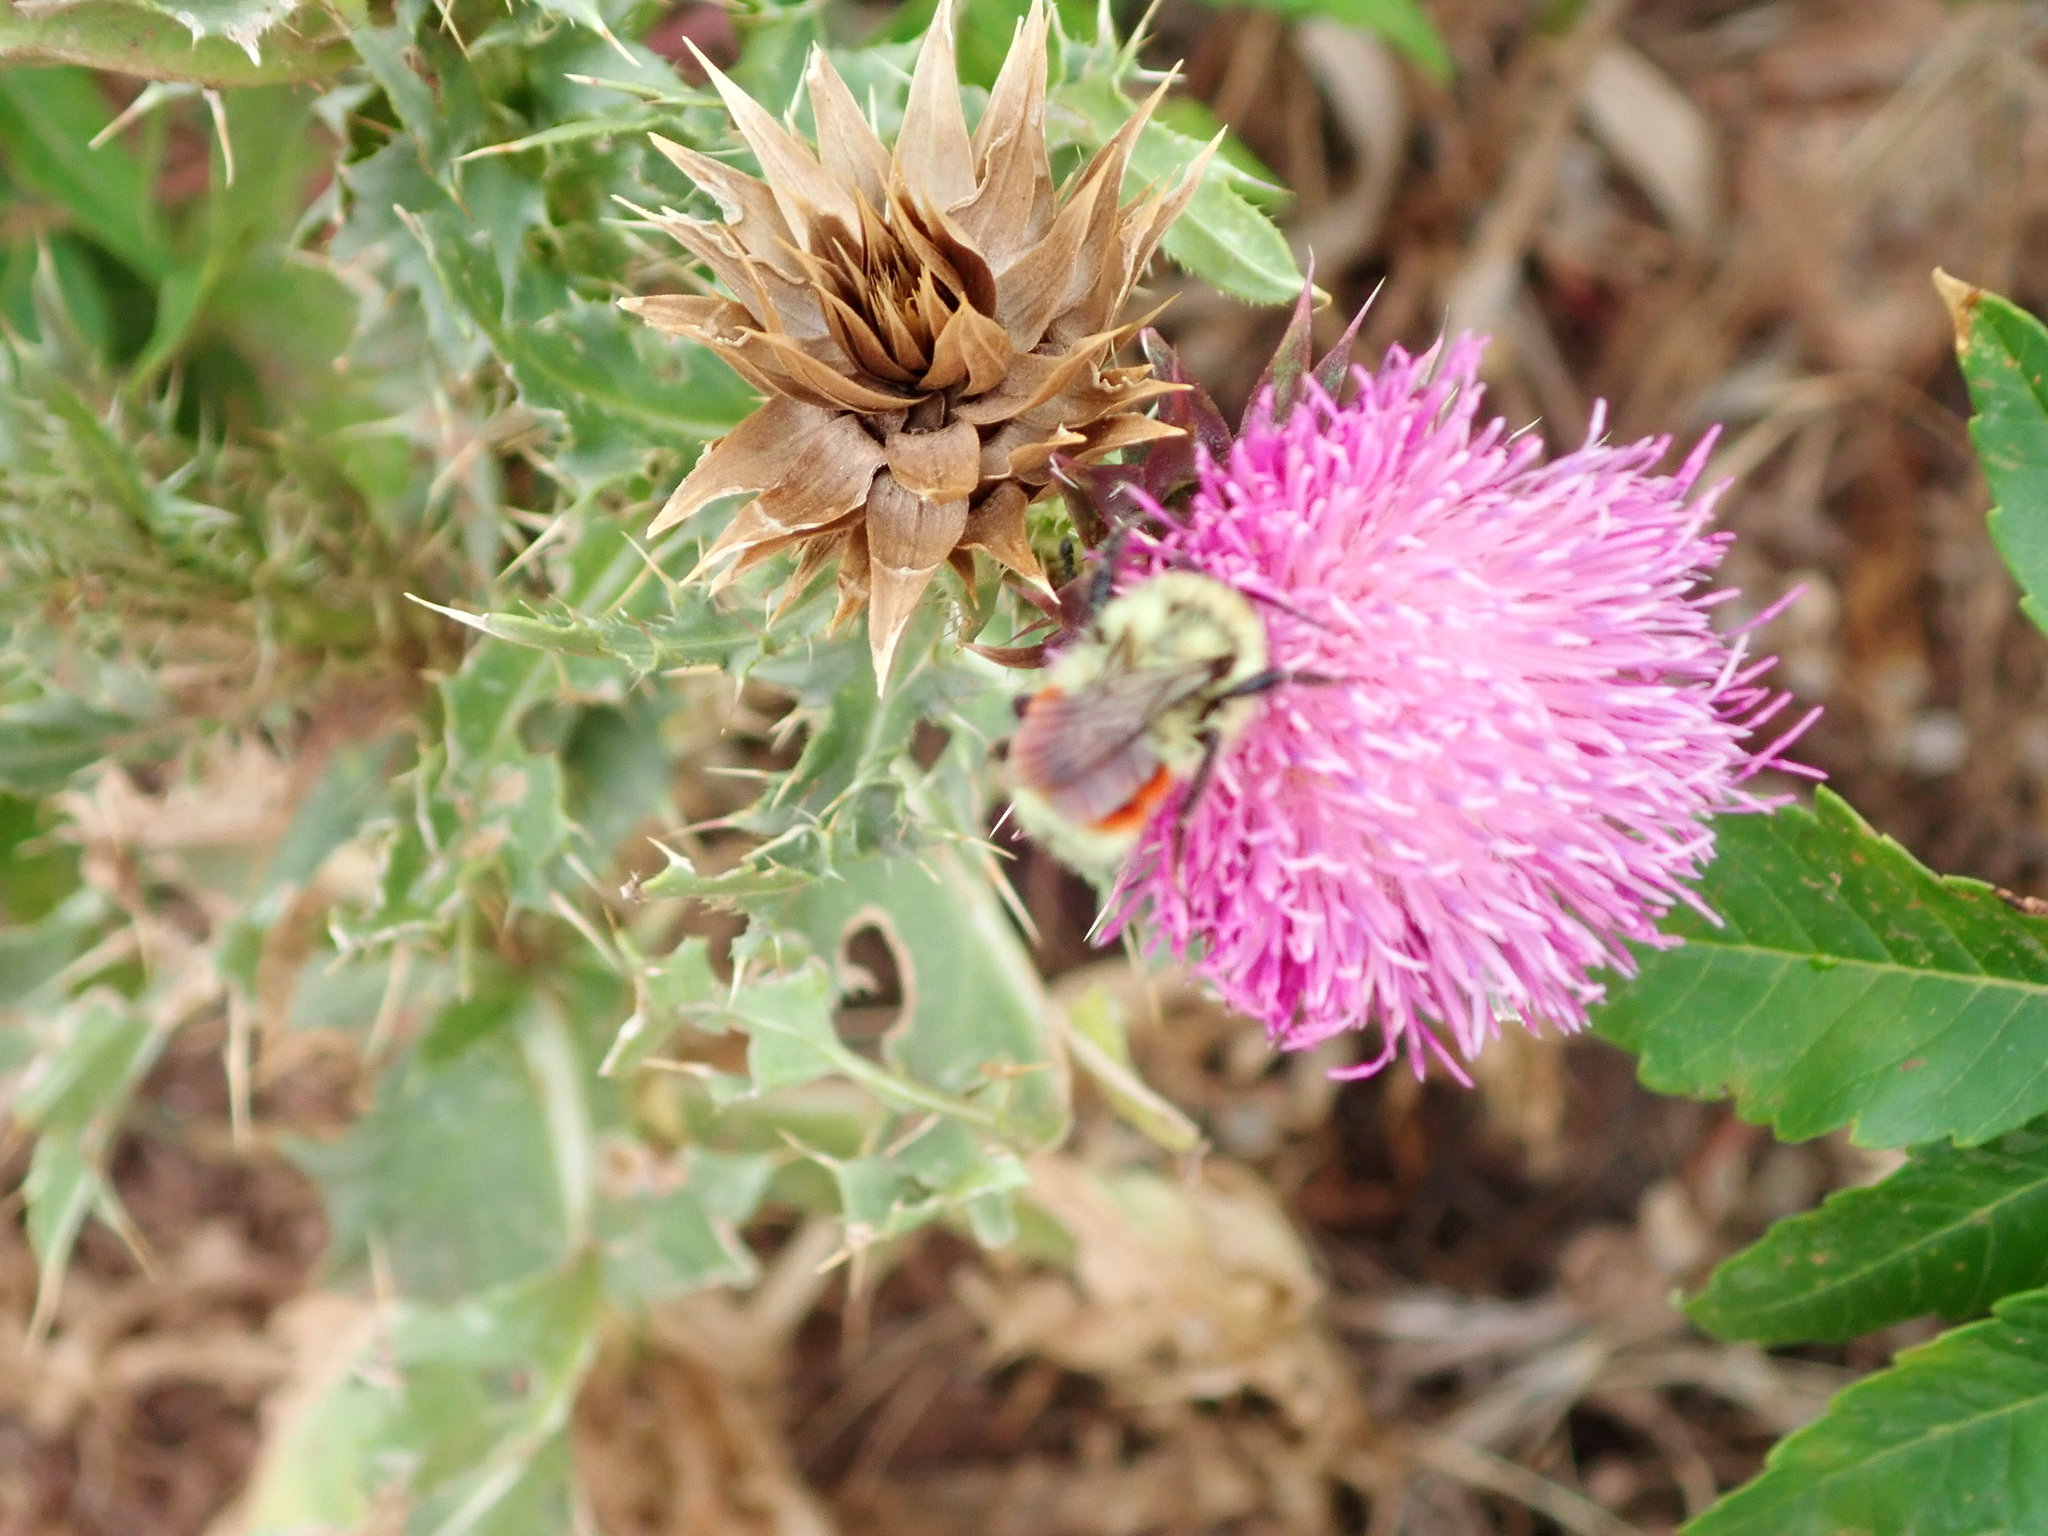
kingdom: Animalia
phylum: Arthropoda
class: Insecta
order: Hymenoptera
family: Apidae
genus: Bombus
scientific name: Bombus huntii
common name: Hunt bumble bee
